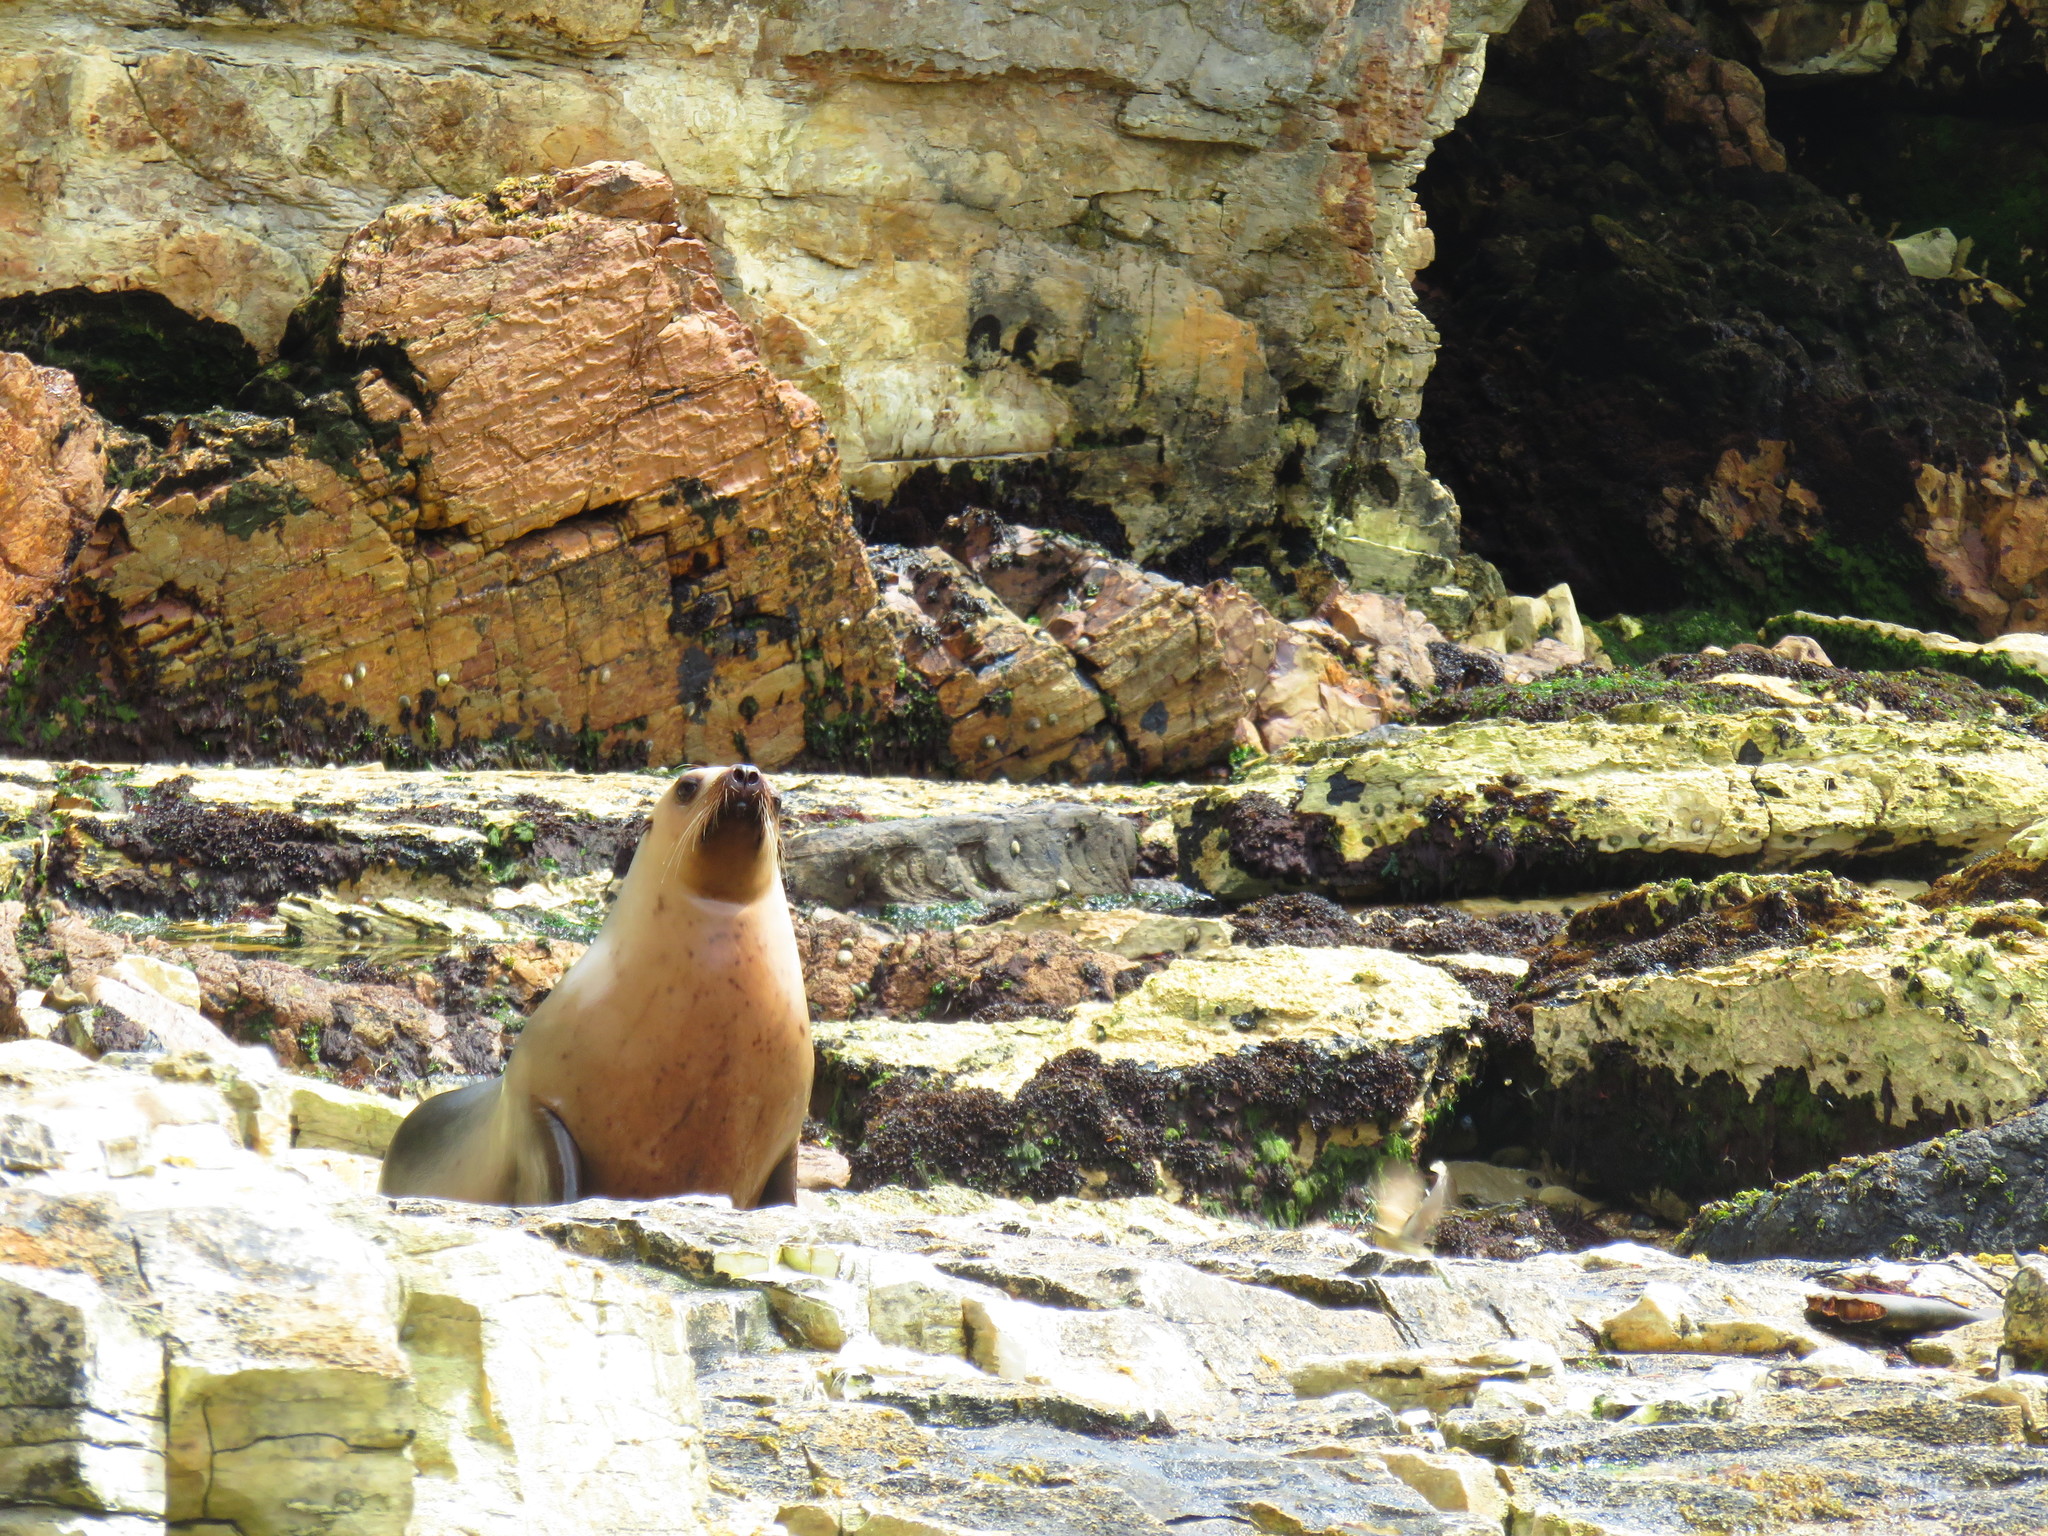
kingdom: Animalia
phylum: Chordata
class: Mammalia
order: Carnivora
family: Otariidae
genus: Phocarctos
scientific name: Phocarctos hookeri
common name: New zealand sea lion
